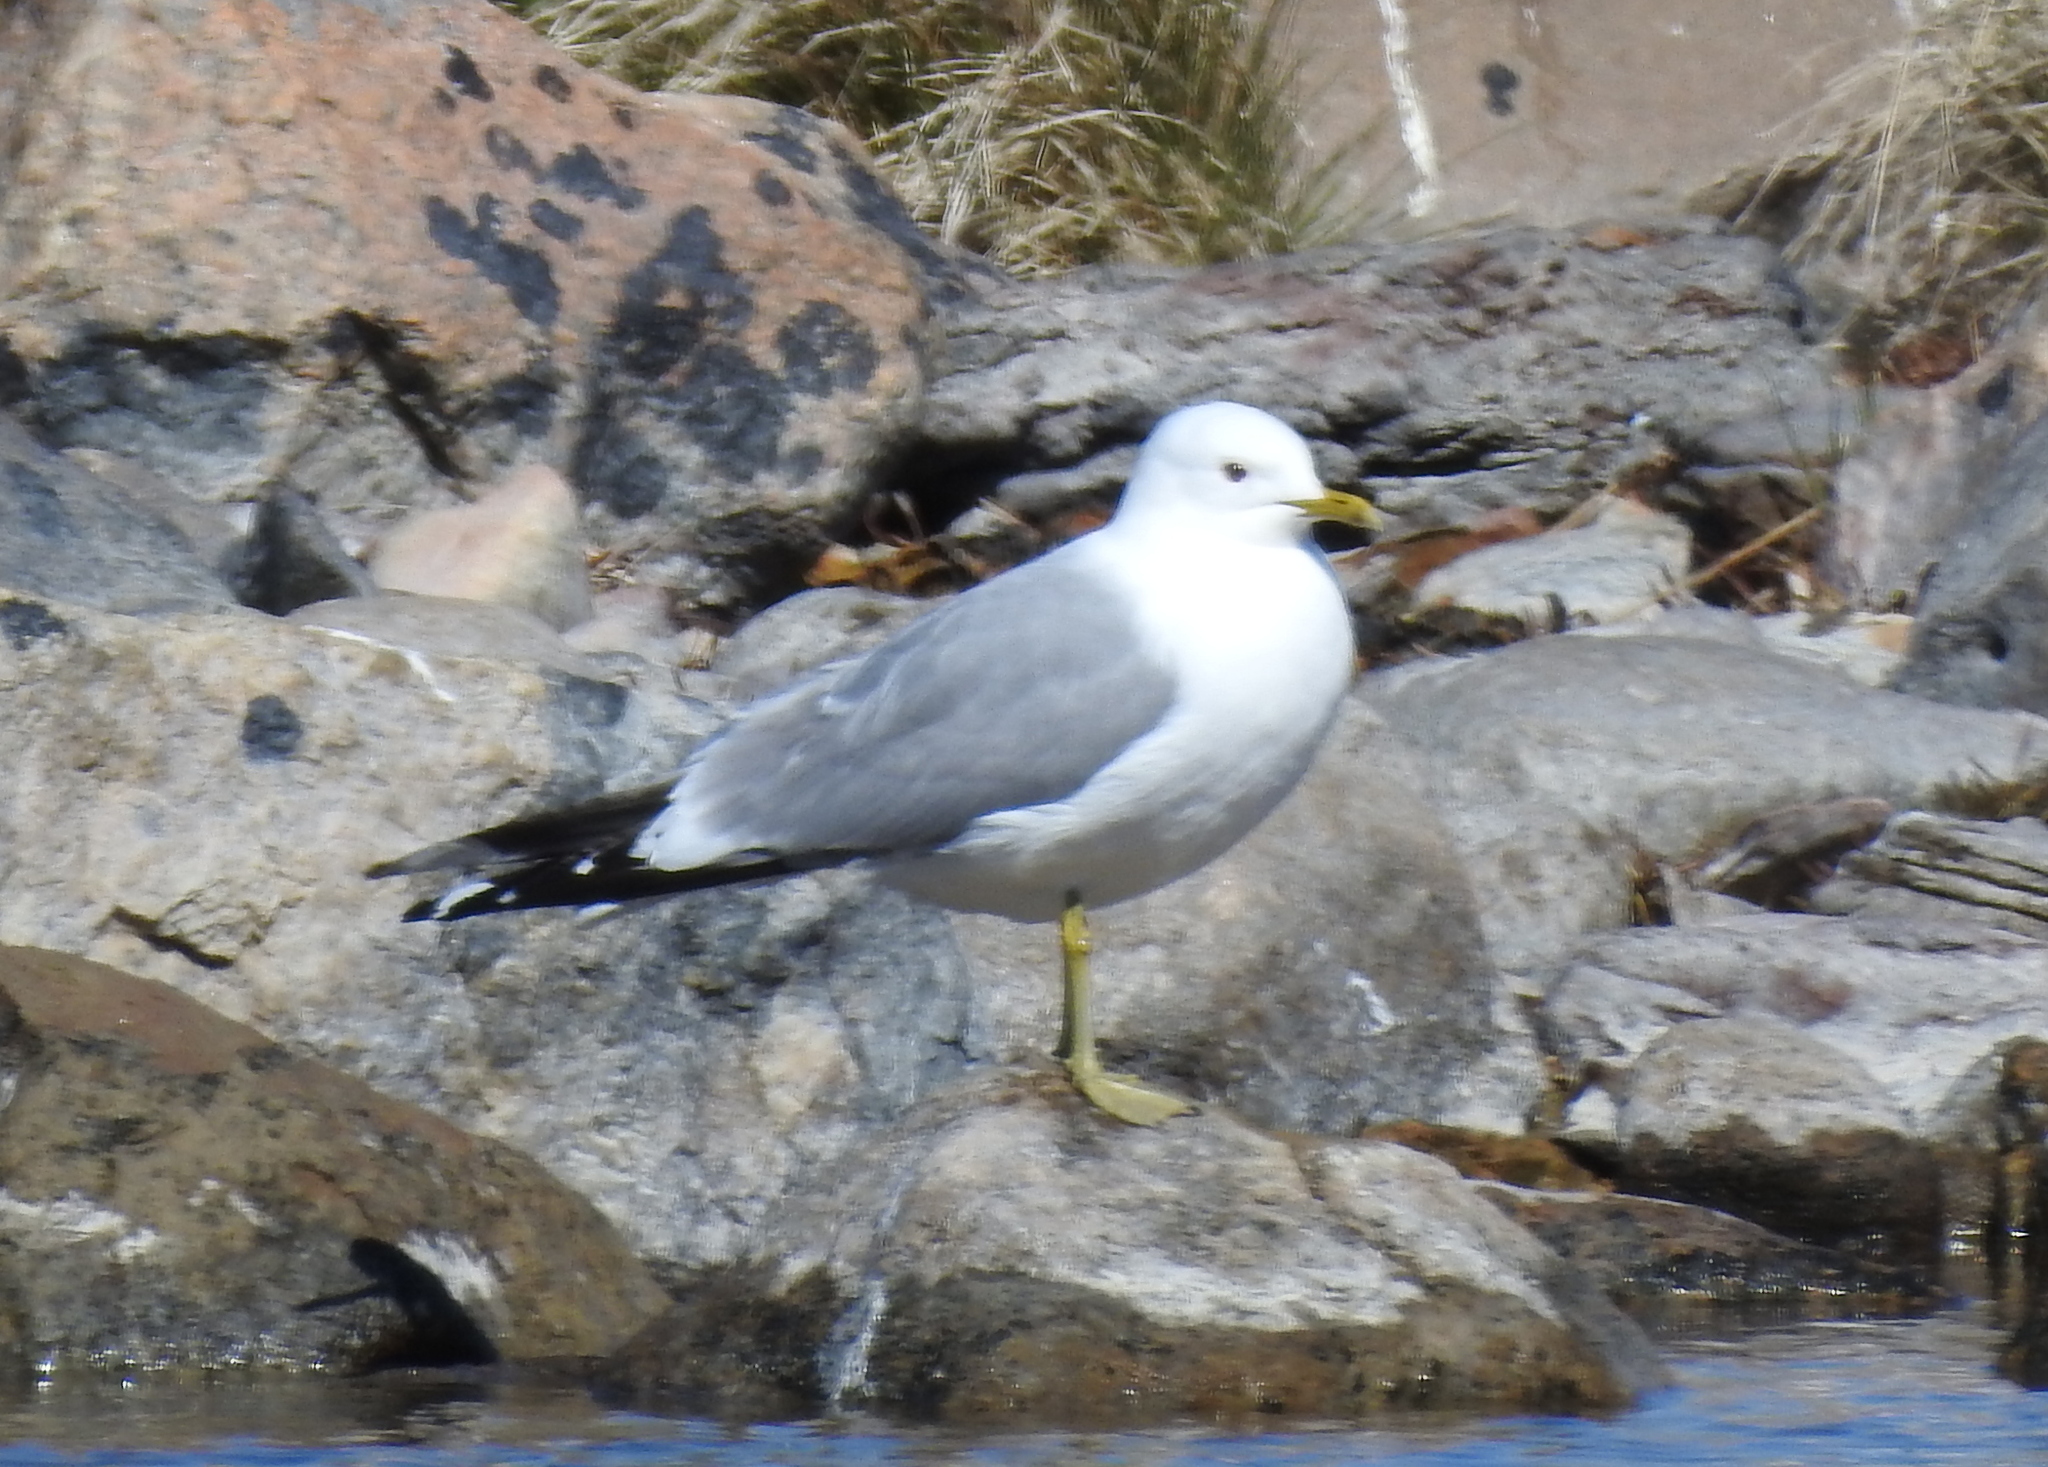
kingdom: Animalia
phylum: Chordata
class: Aves
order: Charadriiformes
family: Laridae
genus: Larus
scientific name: Larus canus
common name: Mew gull
